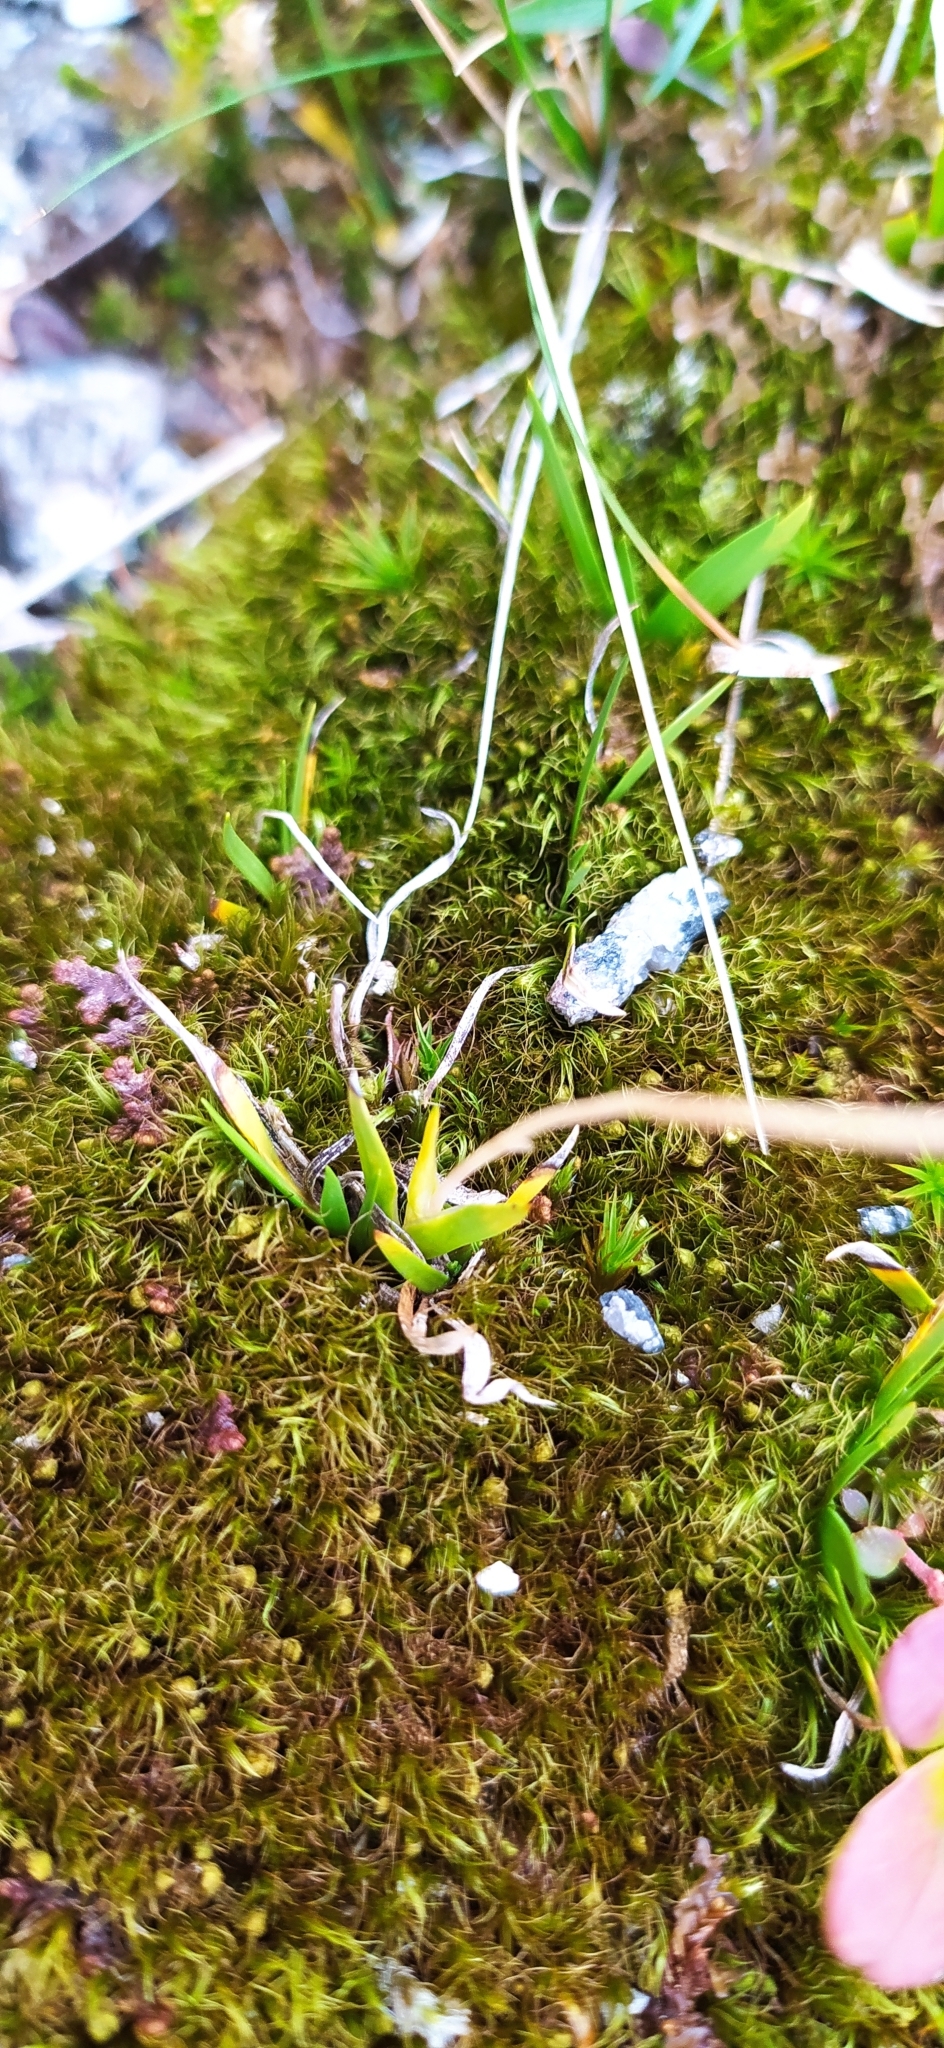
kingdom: Plantae
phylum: Tracheophyta
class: Liliopsida
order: Alismatales
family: Tofieldiaceae
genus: Tofieldia
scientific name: Tofieldia pusilla
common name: Scottish false asphodel
